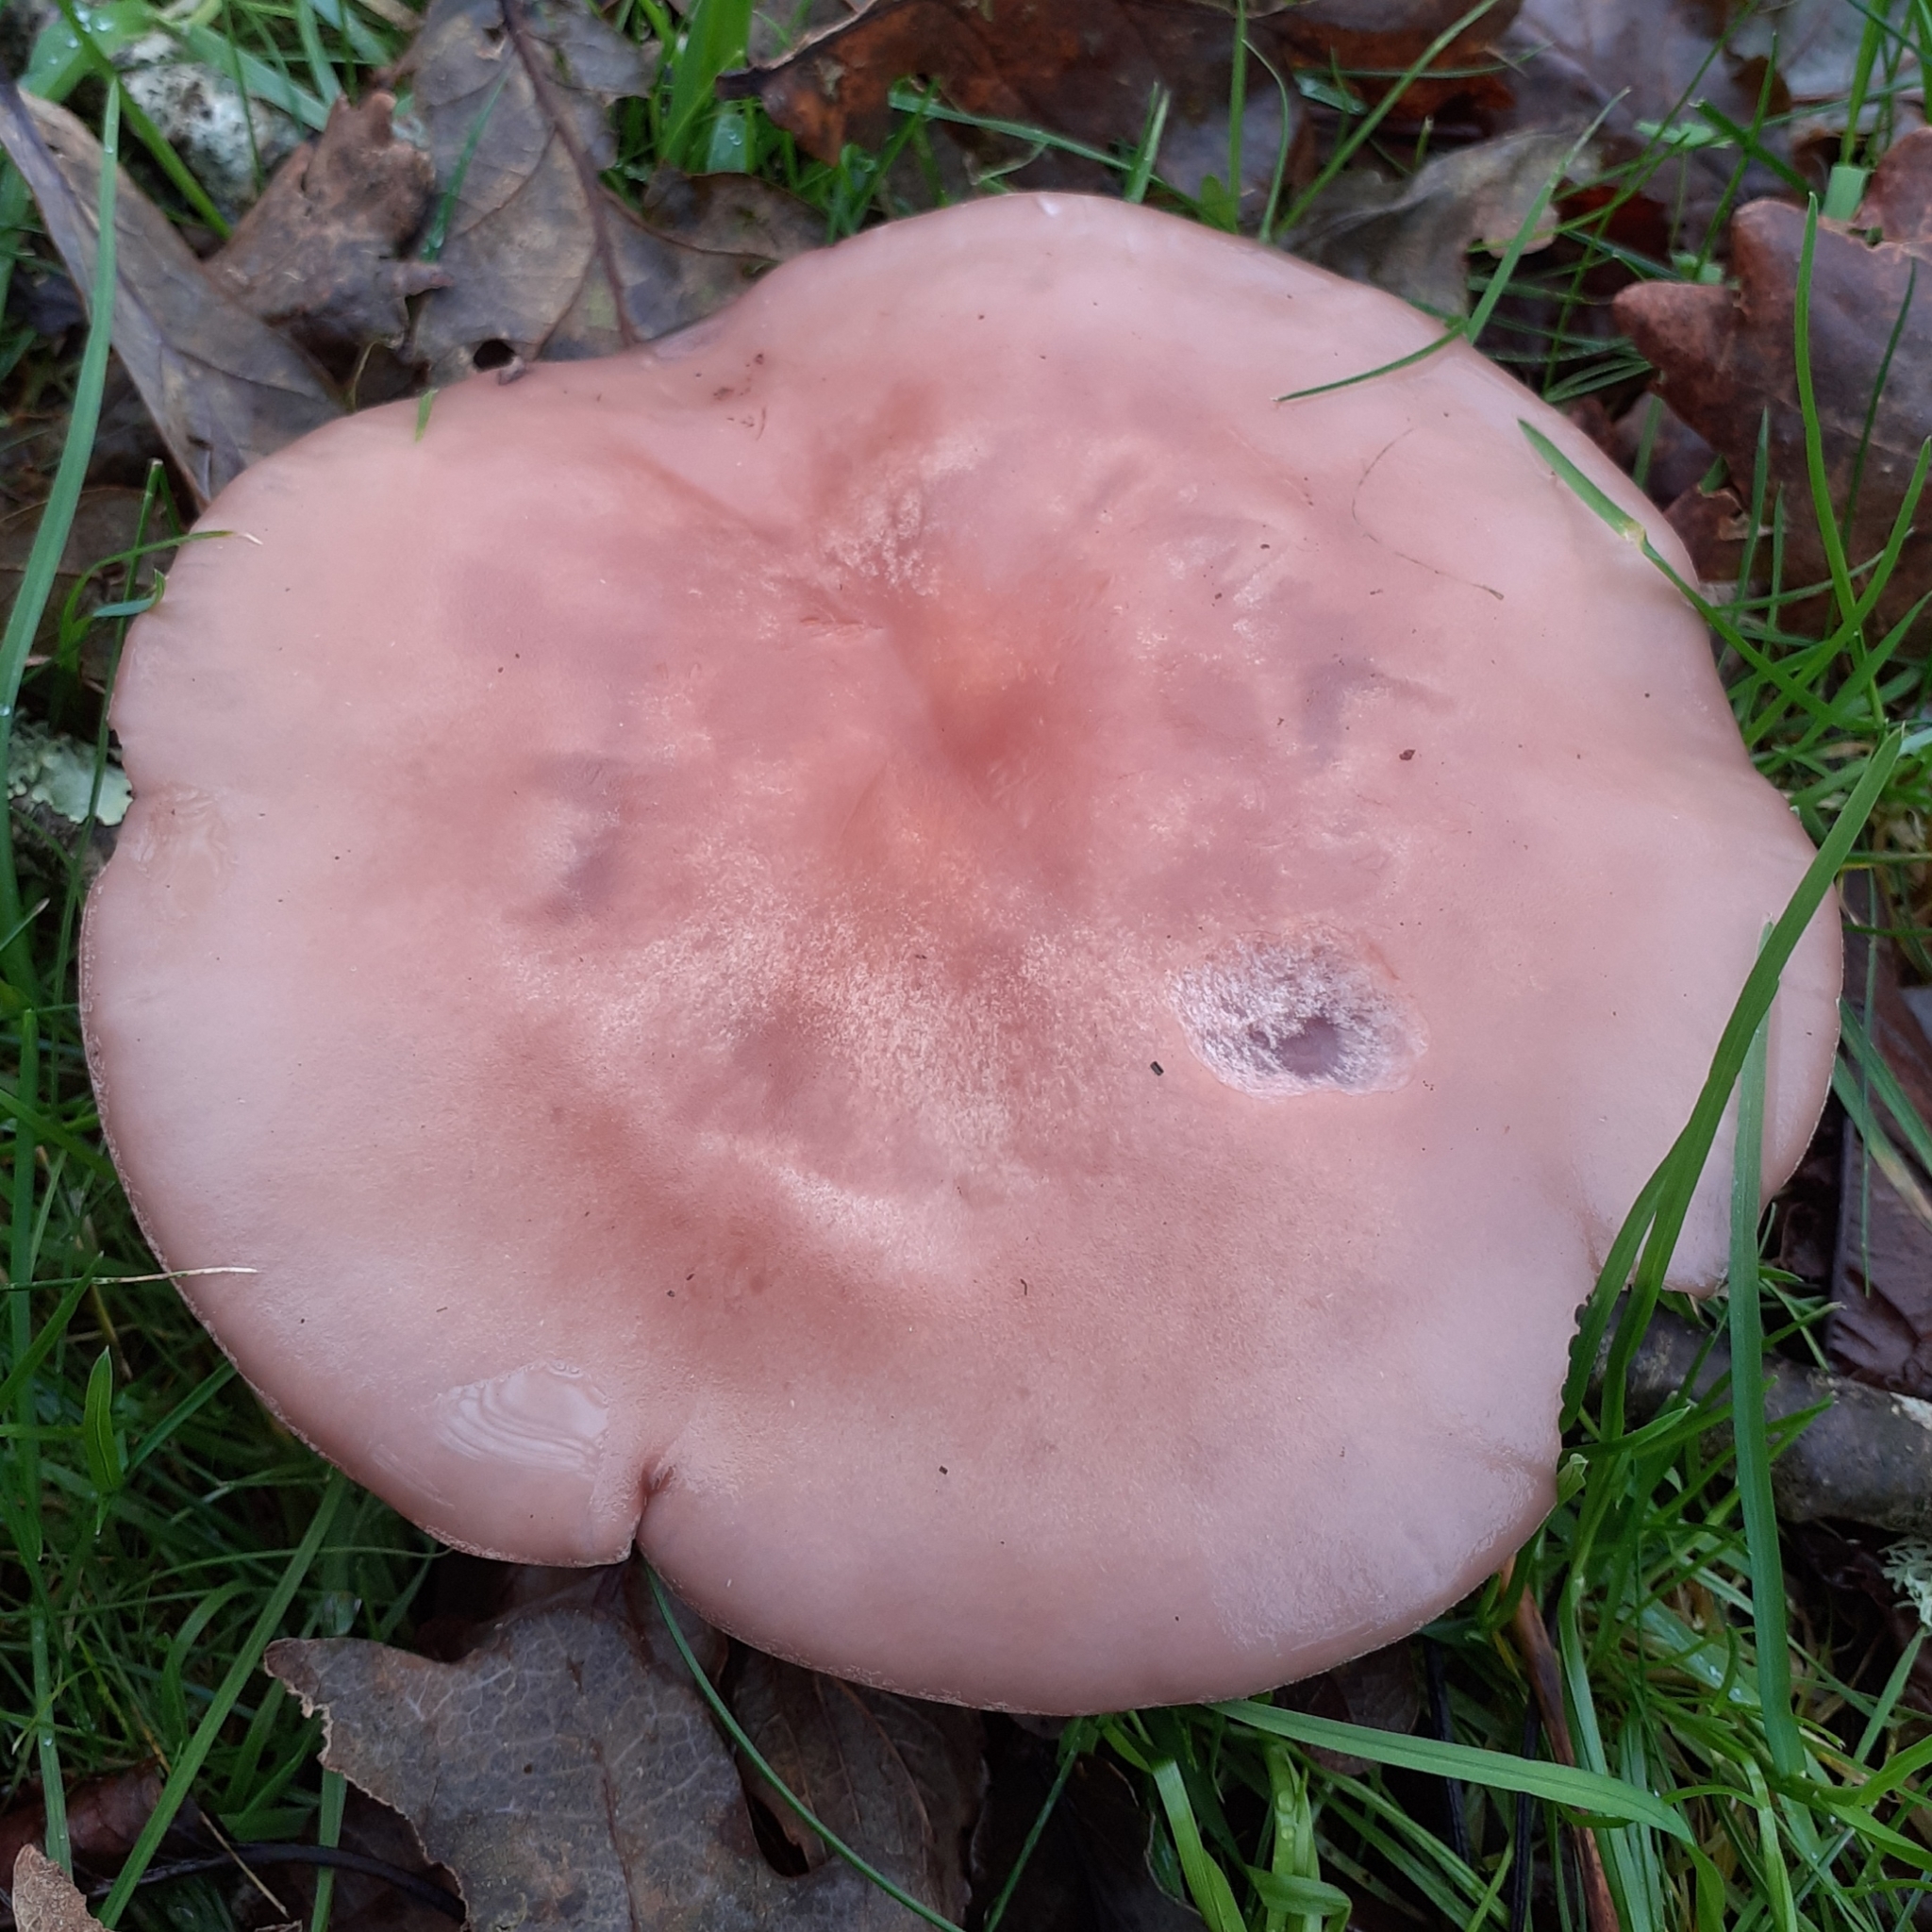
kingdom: Fungi
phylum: Basidiomycota
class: Agaricomycetes
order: Agaricales
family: Tricholomataceae
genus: Collybia
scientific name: Collybia
